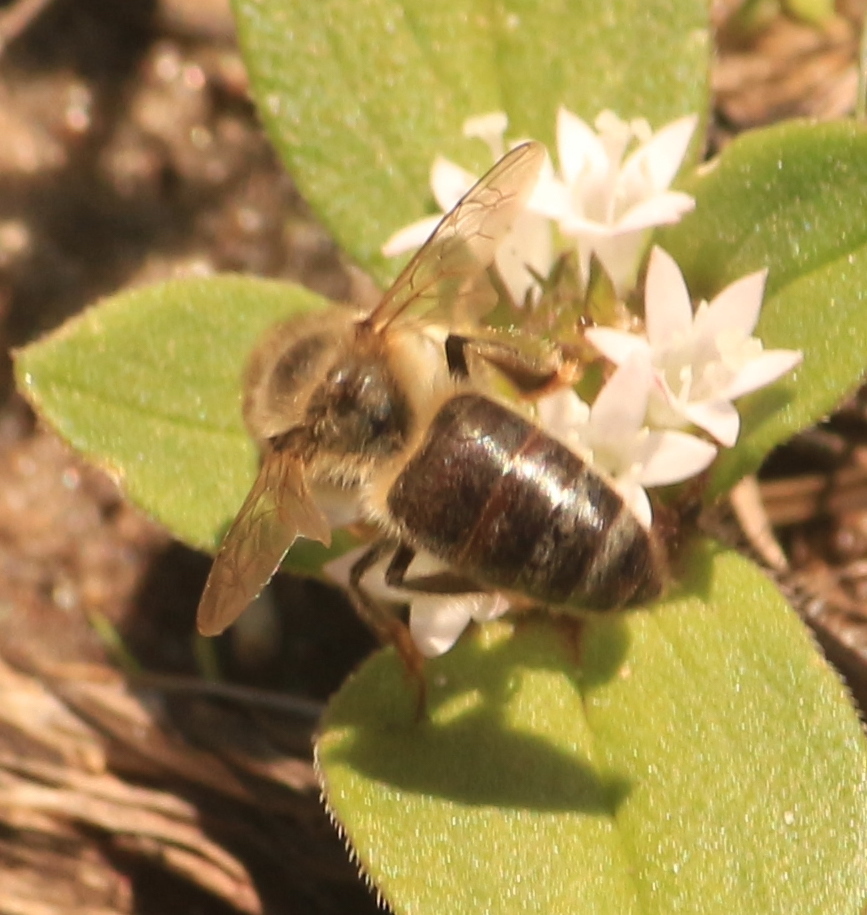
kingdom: Animalia
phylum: Arthropoda
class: Insecta
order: Hymenoptera
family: Apidae
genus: Apis
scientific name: Apis mellifera
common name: Honey bee
